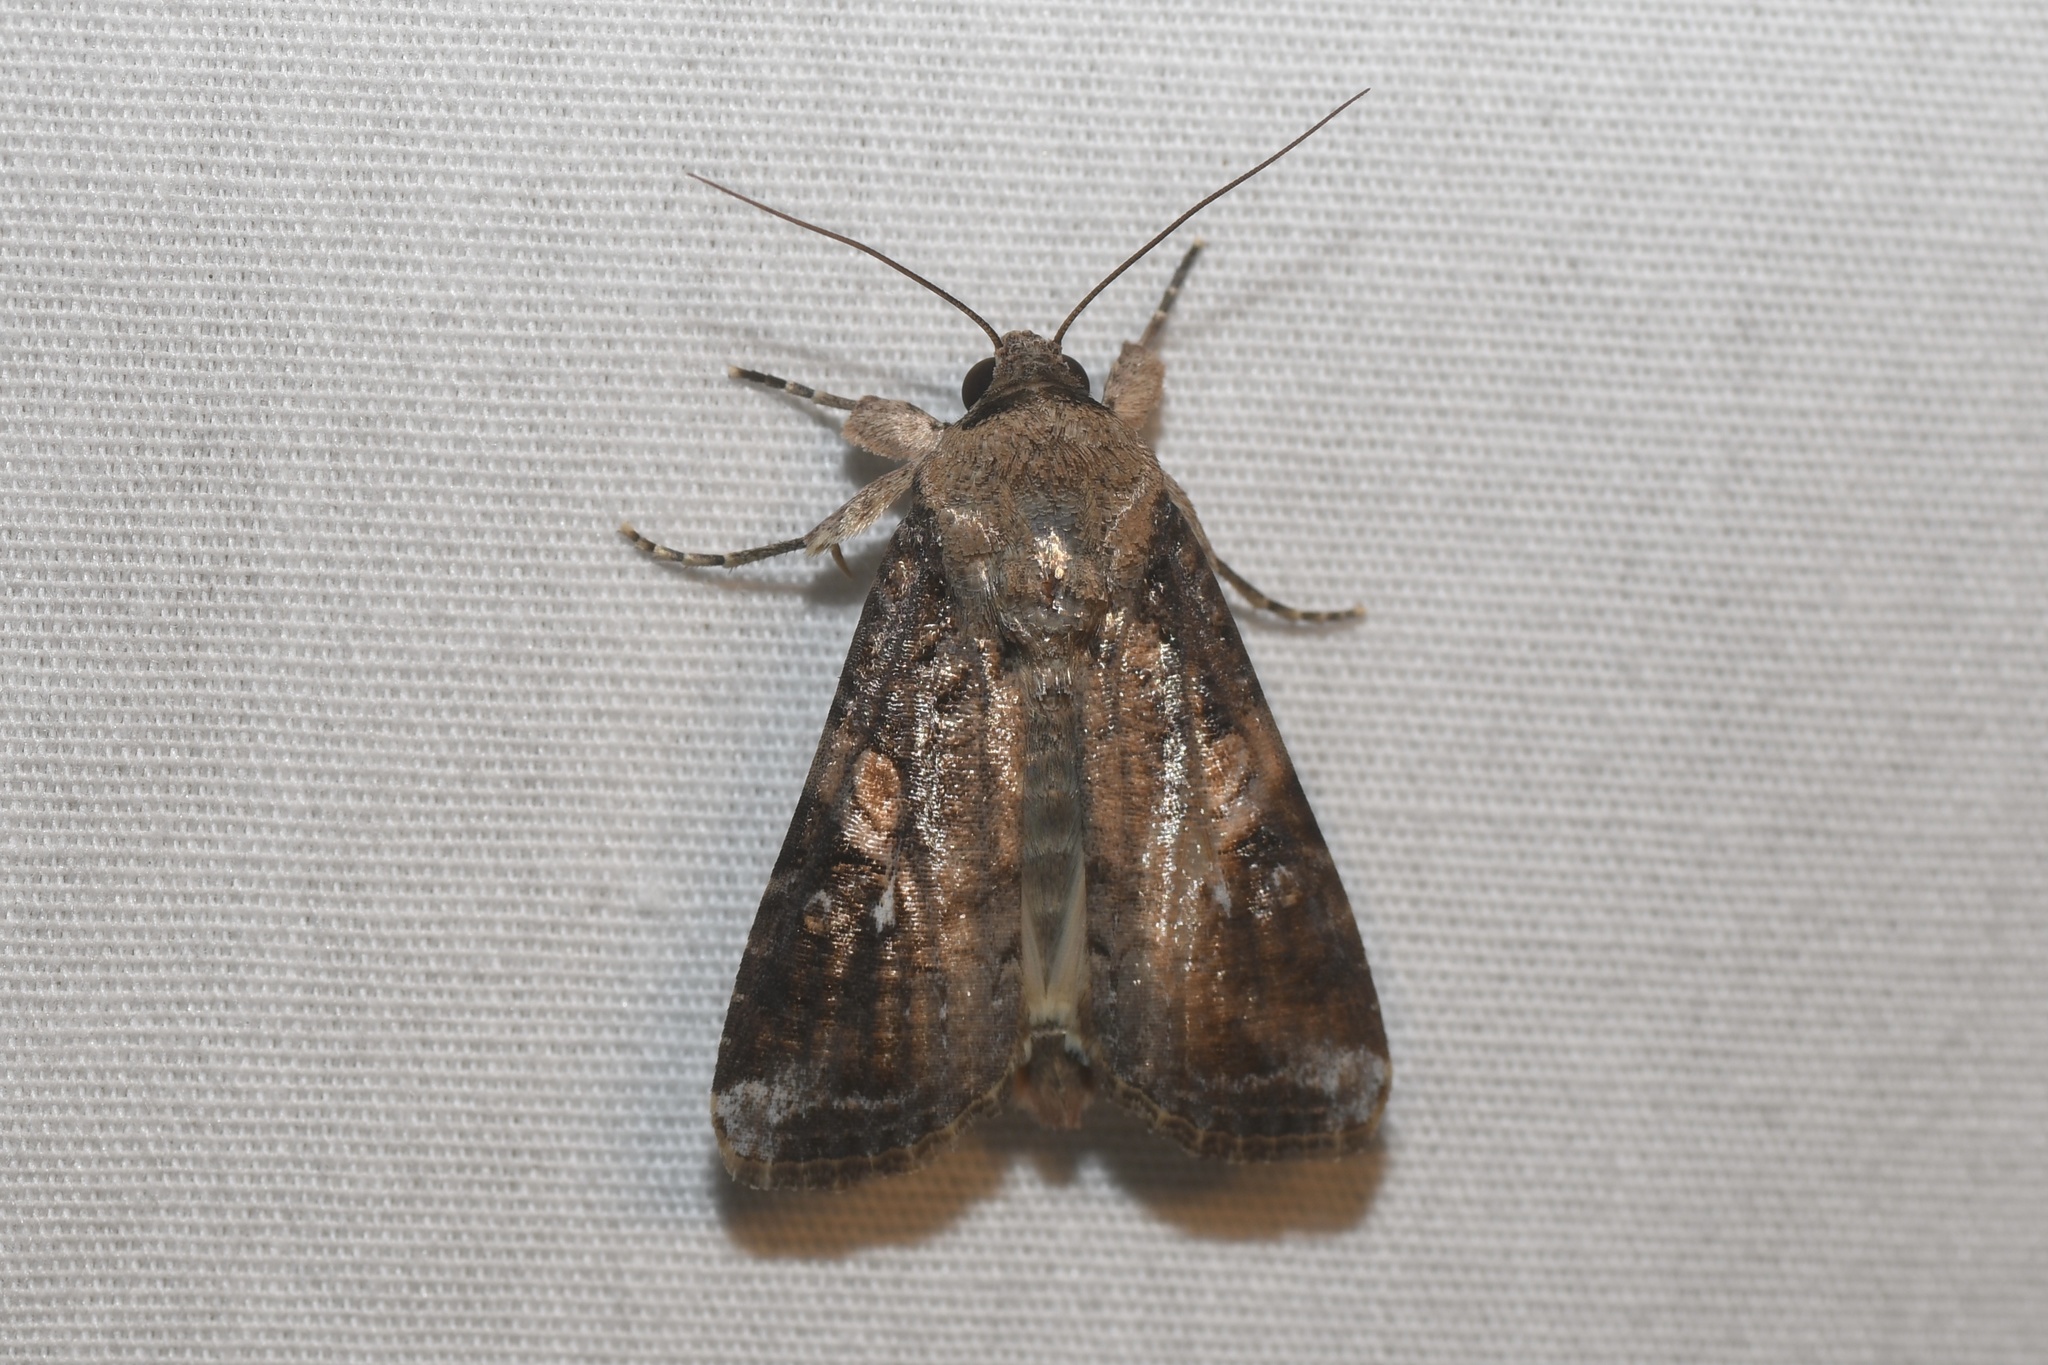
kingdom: Animalia
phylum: Arthropoda
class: Insecta
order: Lepidoptera
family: Noctuidae
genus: Spodoptera
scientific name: Spodoptera frugiperda
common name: Fall armyworm
